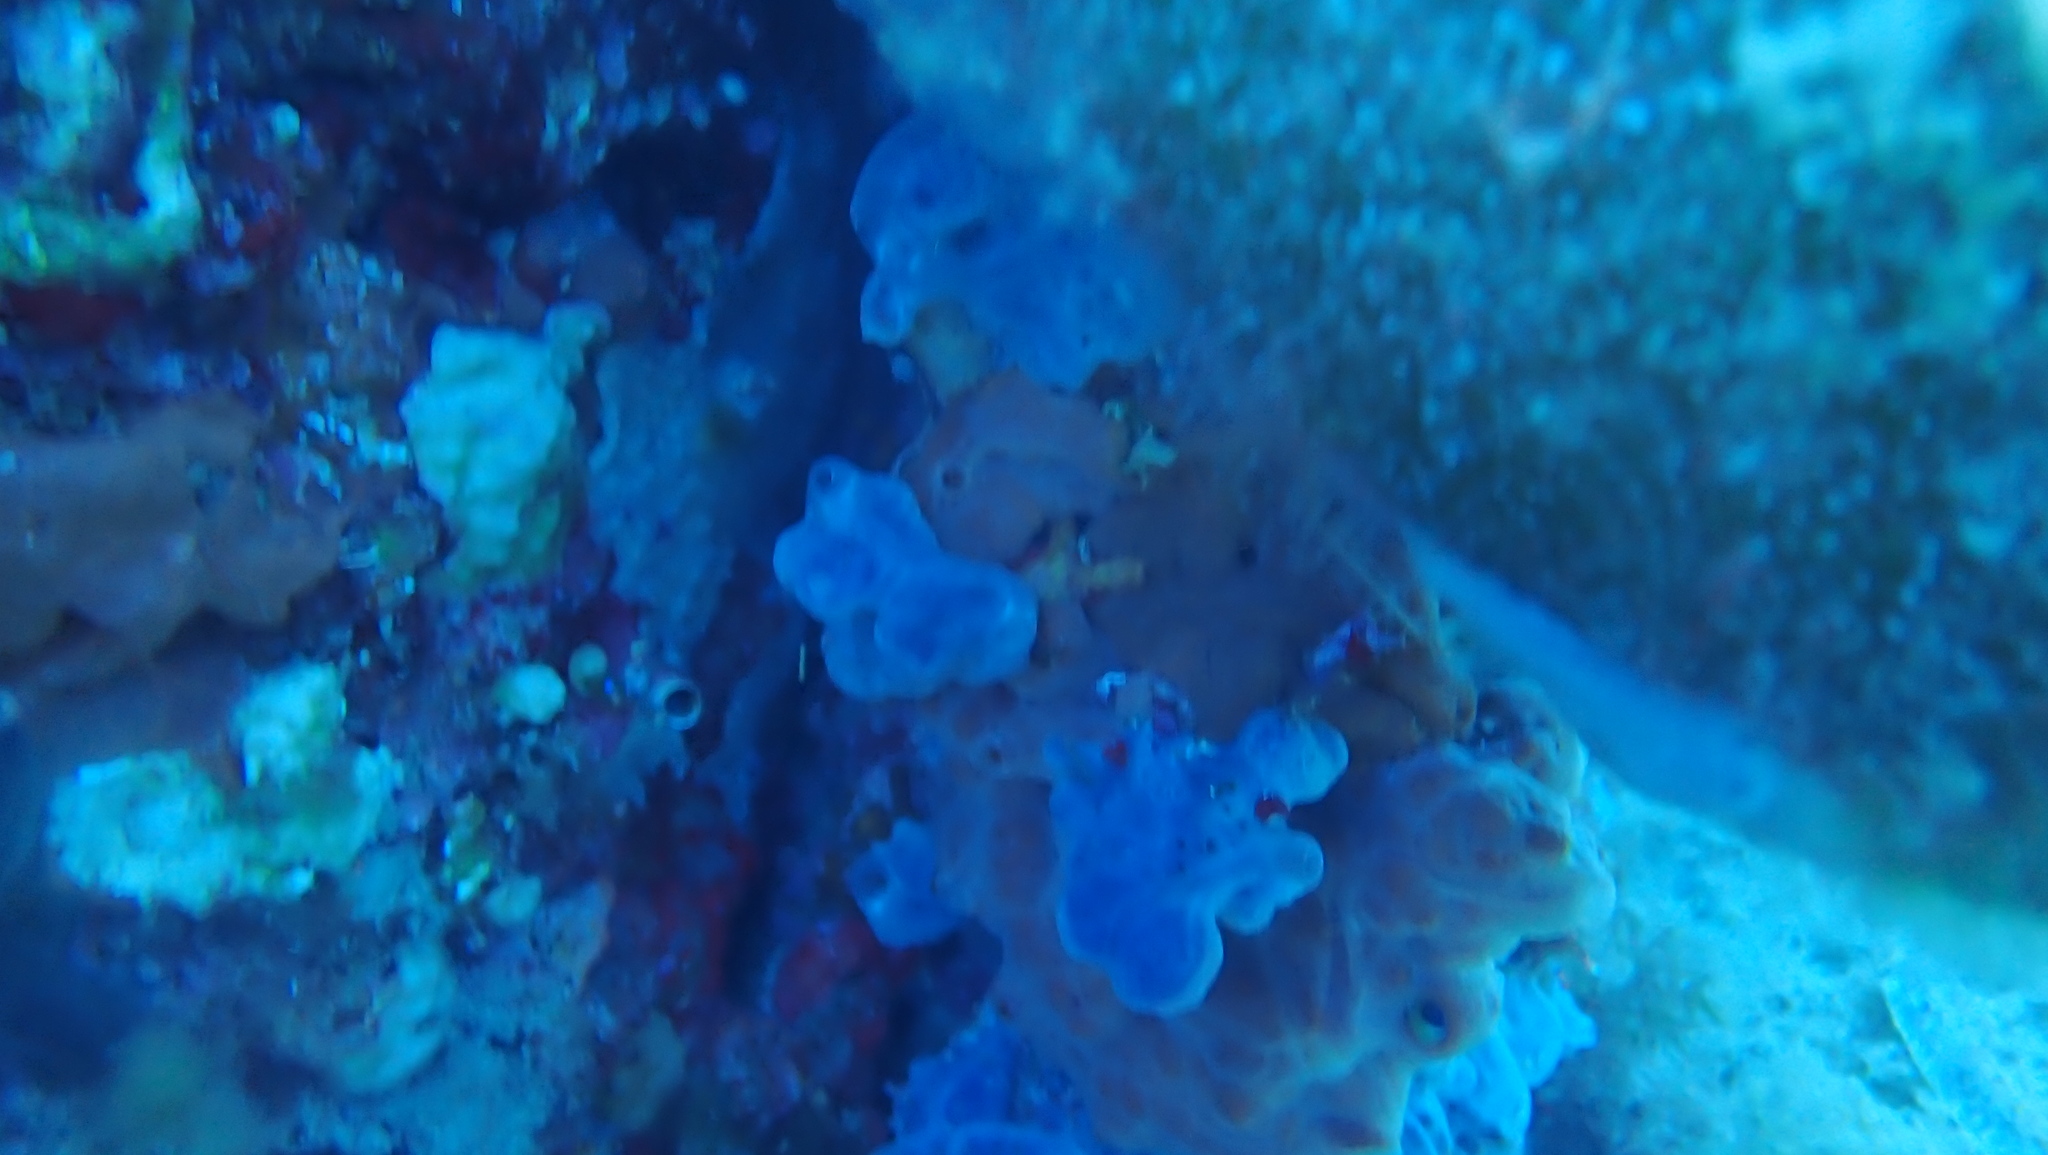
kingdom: Animalia
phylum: Porifera
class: Demospongiae
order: Poecilosclerida
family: Hymedesmiidae
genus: Phorbas
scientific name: Phorbas tenacior
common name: Bluish encrusting sponge
